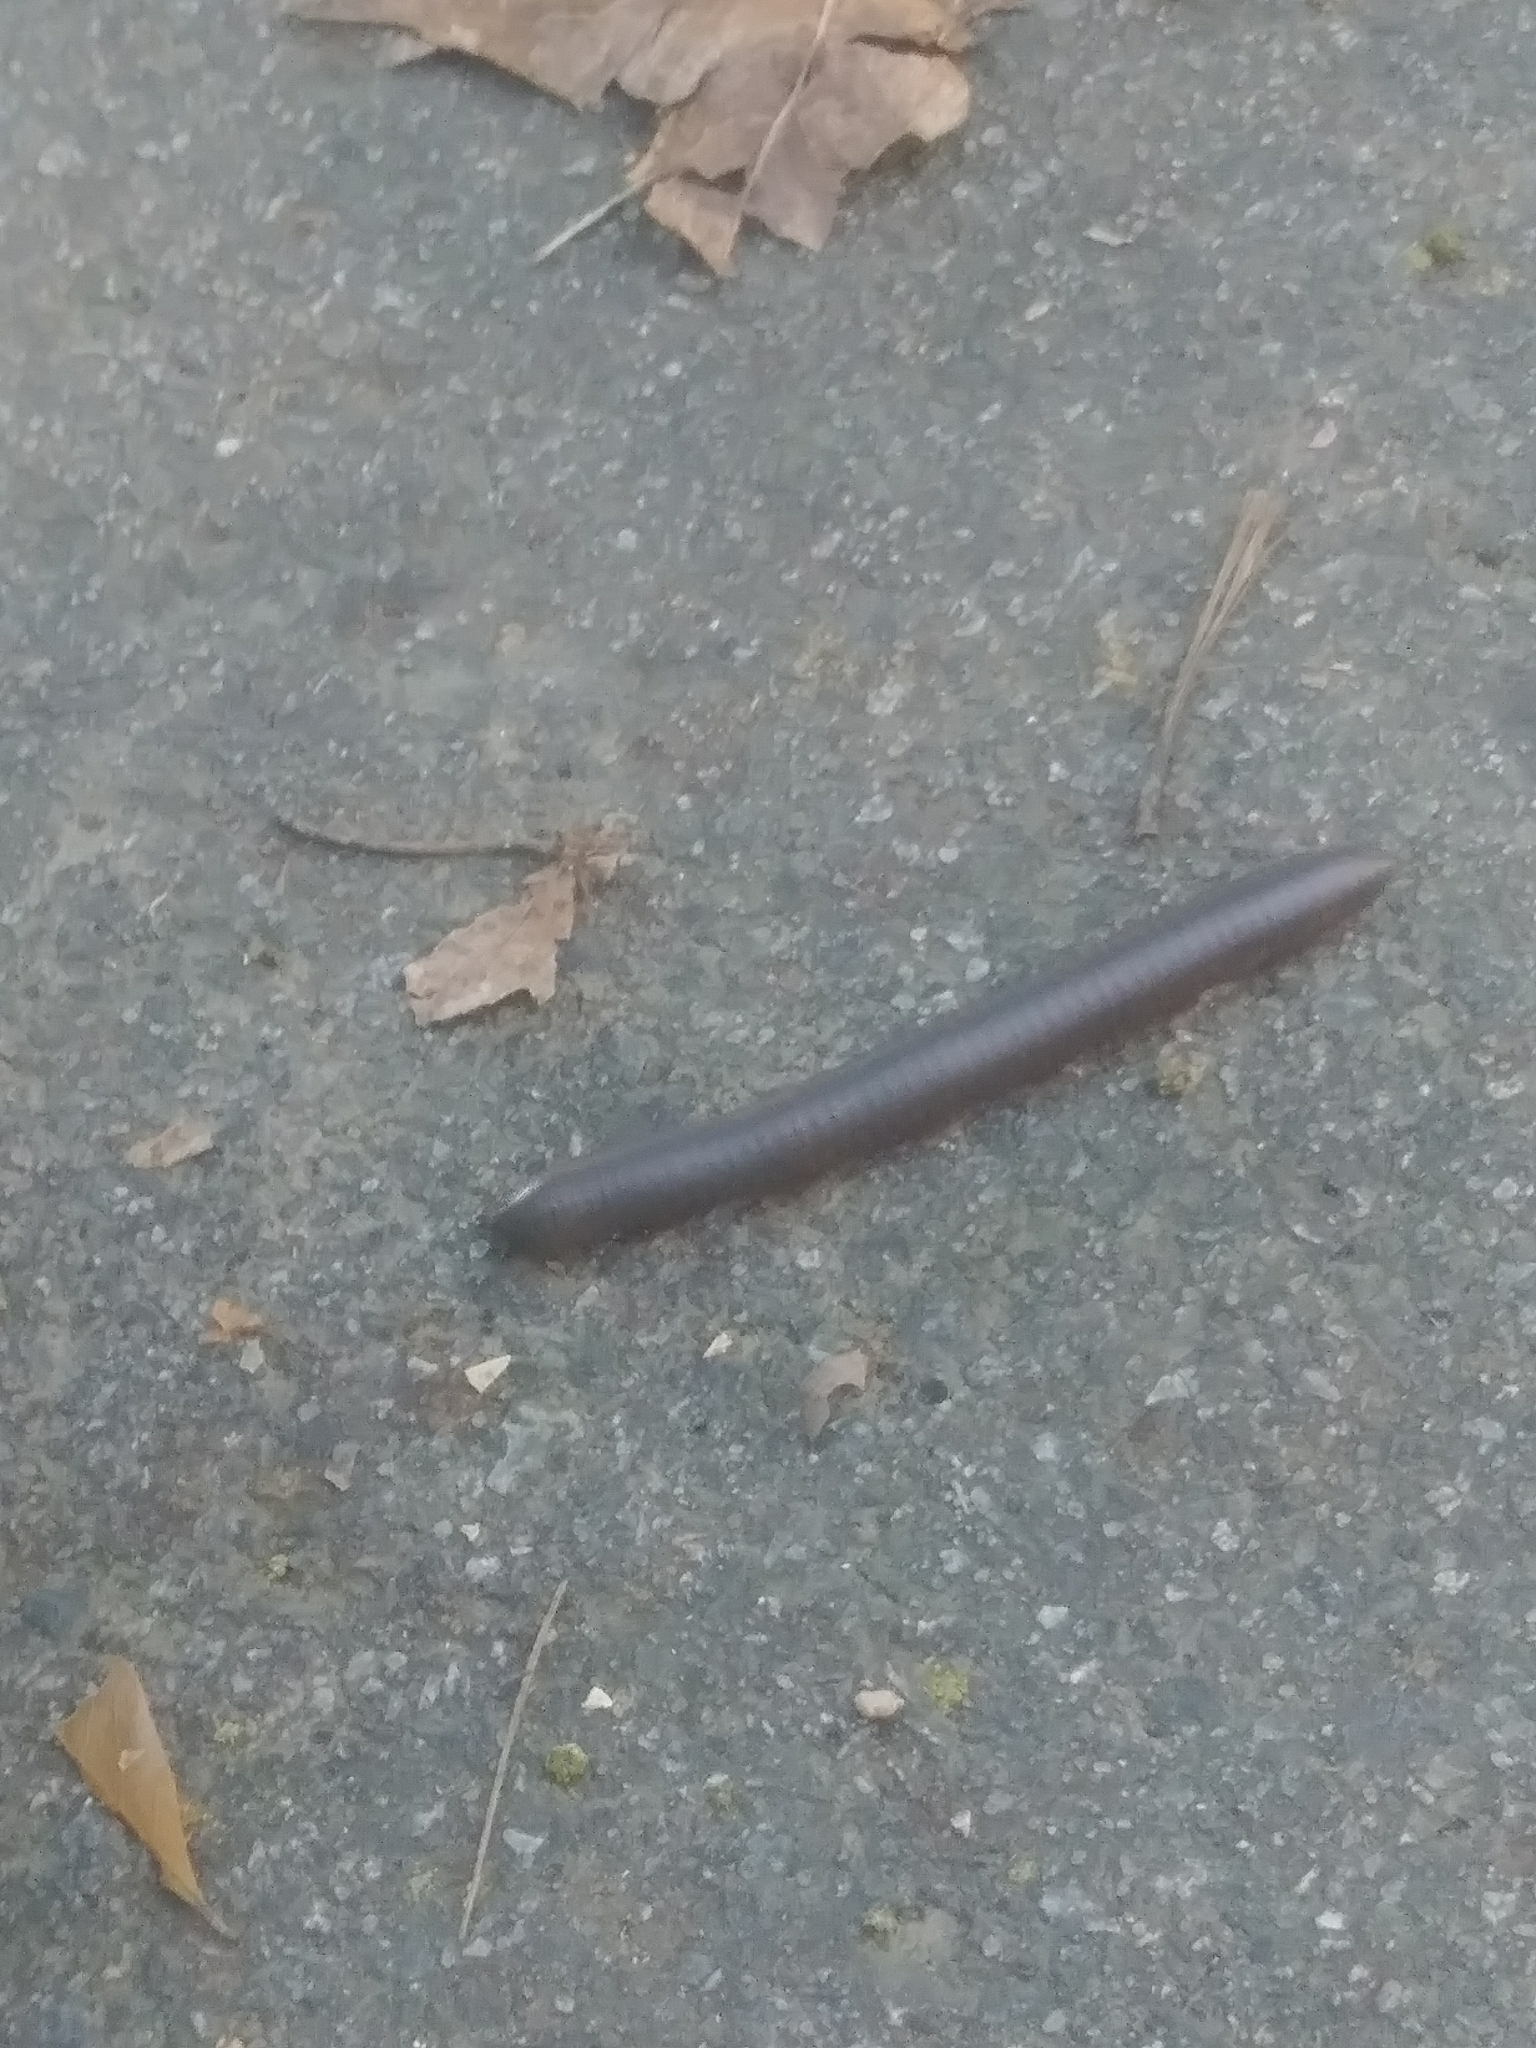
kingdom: Animalia
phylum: Arthropoda
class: Diplopoda
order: Spirobolida
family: Spirobolidae
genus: Narceus
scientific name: Narceus
